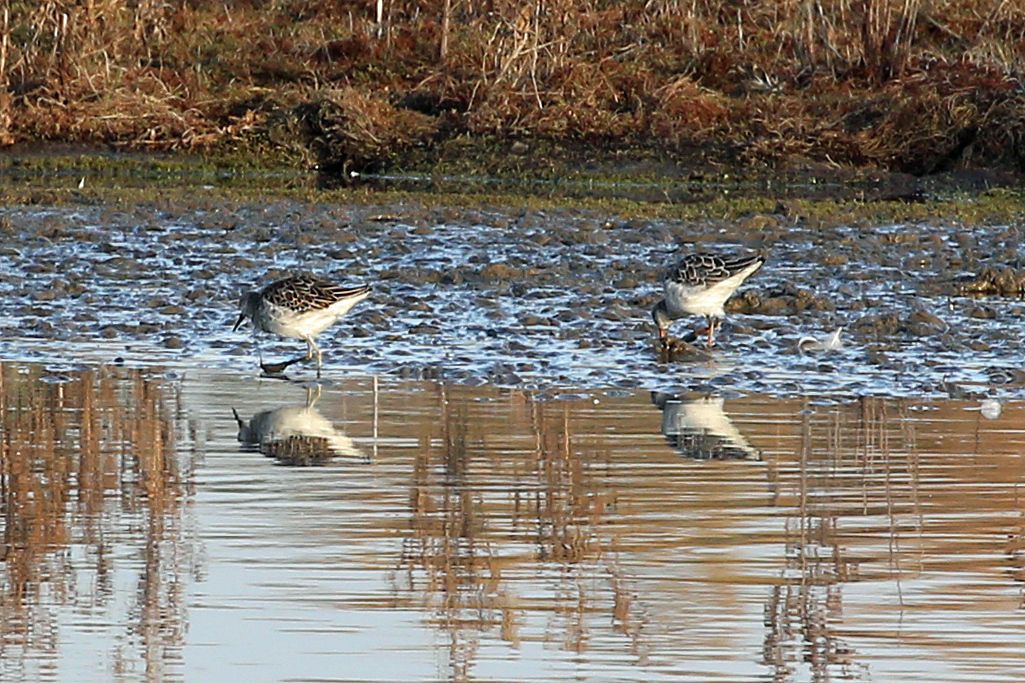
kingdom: Animalia
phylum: Chordata
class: Aves
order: Charadriiformes
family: Scolopacidae
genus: Calidris
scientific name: Calidris pugnax
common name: Ruff
